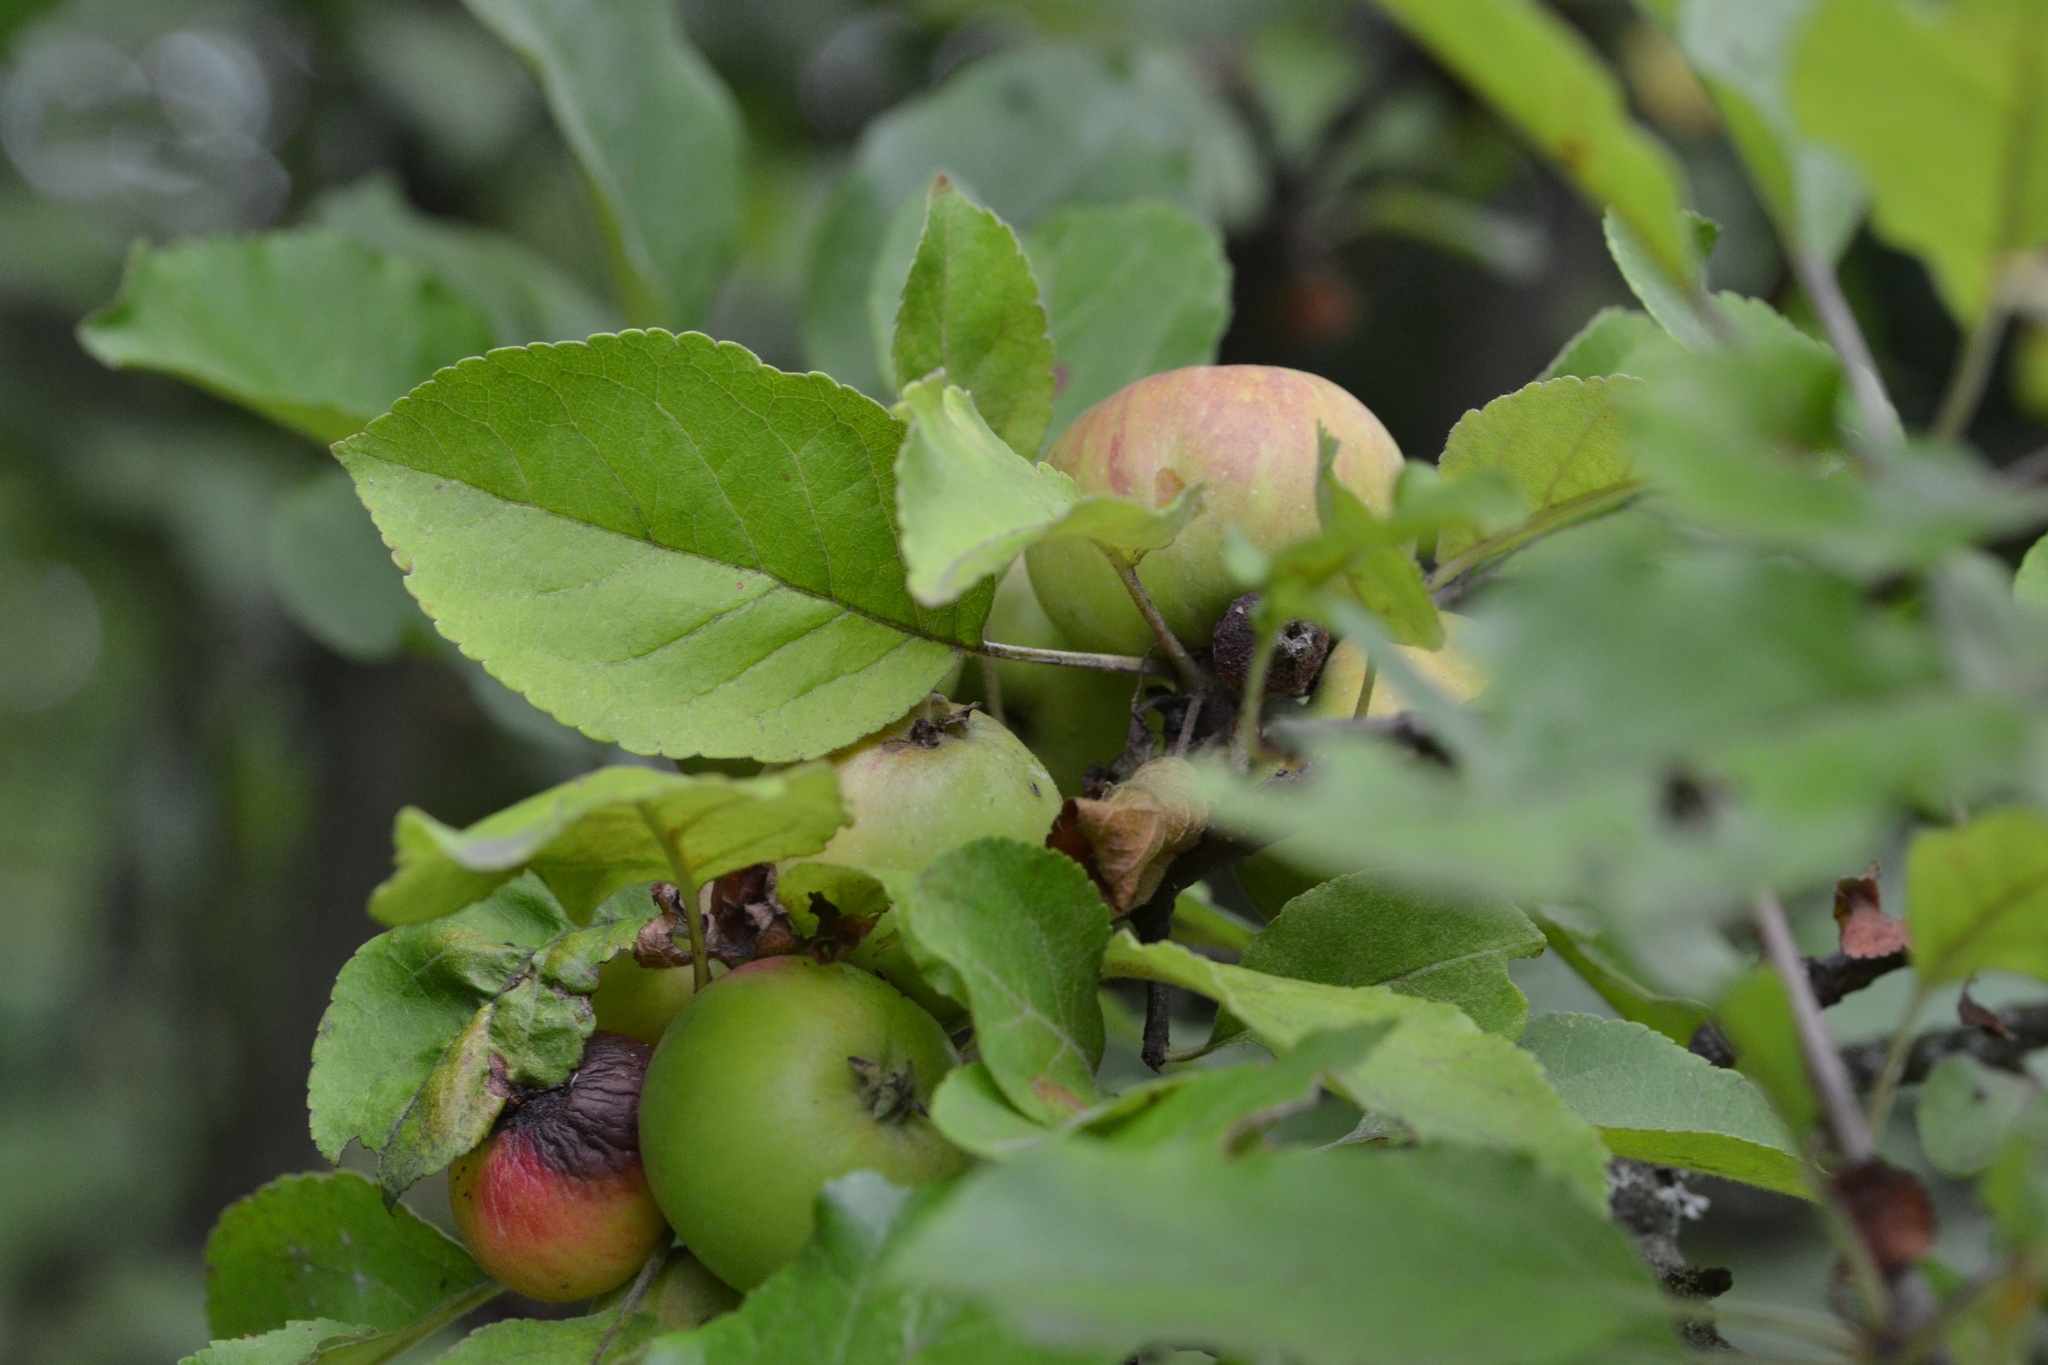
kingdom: Plantae
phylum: Tracheophyta
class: Magnoliopsida
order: Rosales
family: Rosaceae
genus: Malus
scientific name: Malus domestica
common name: Apple
